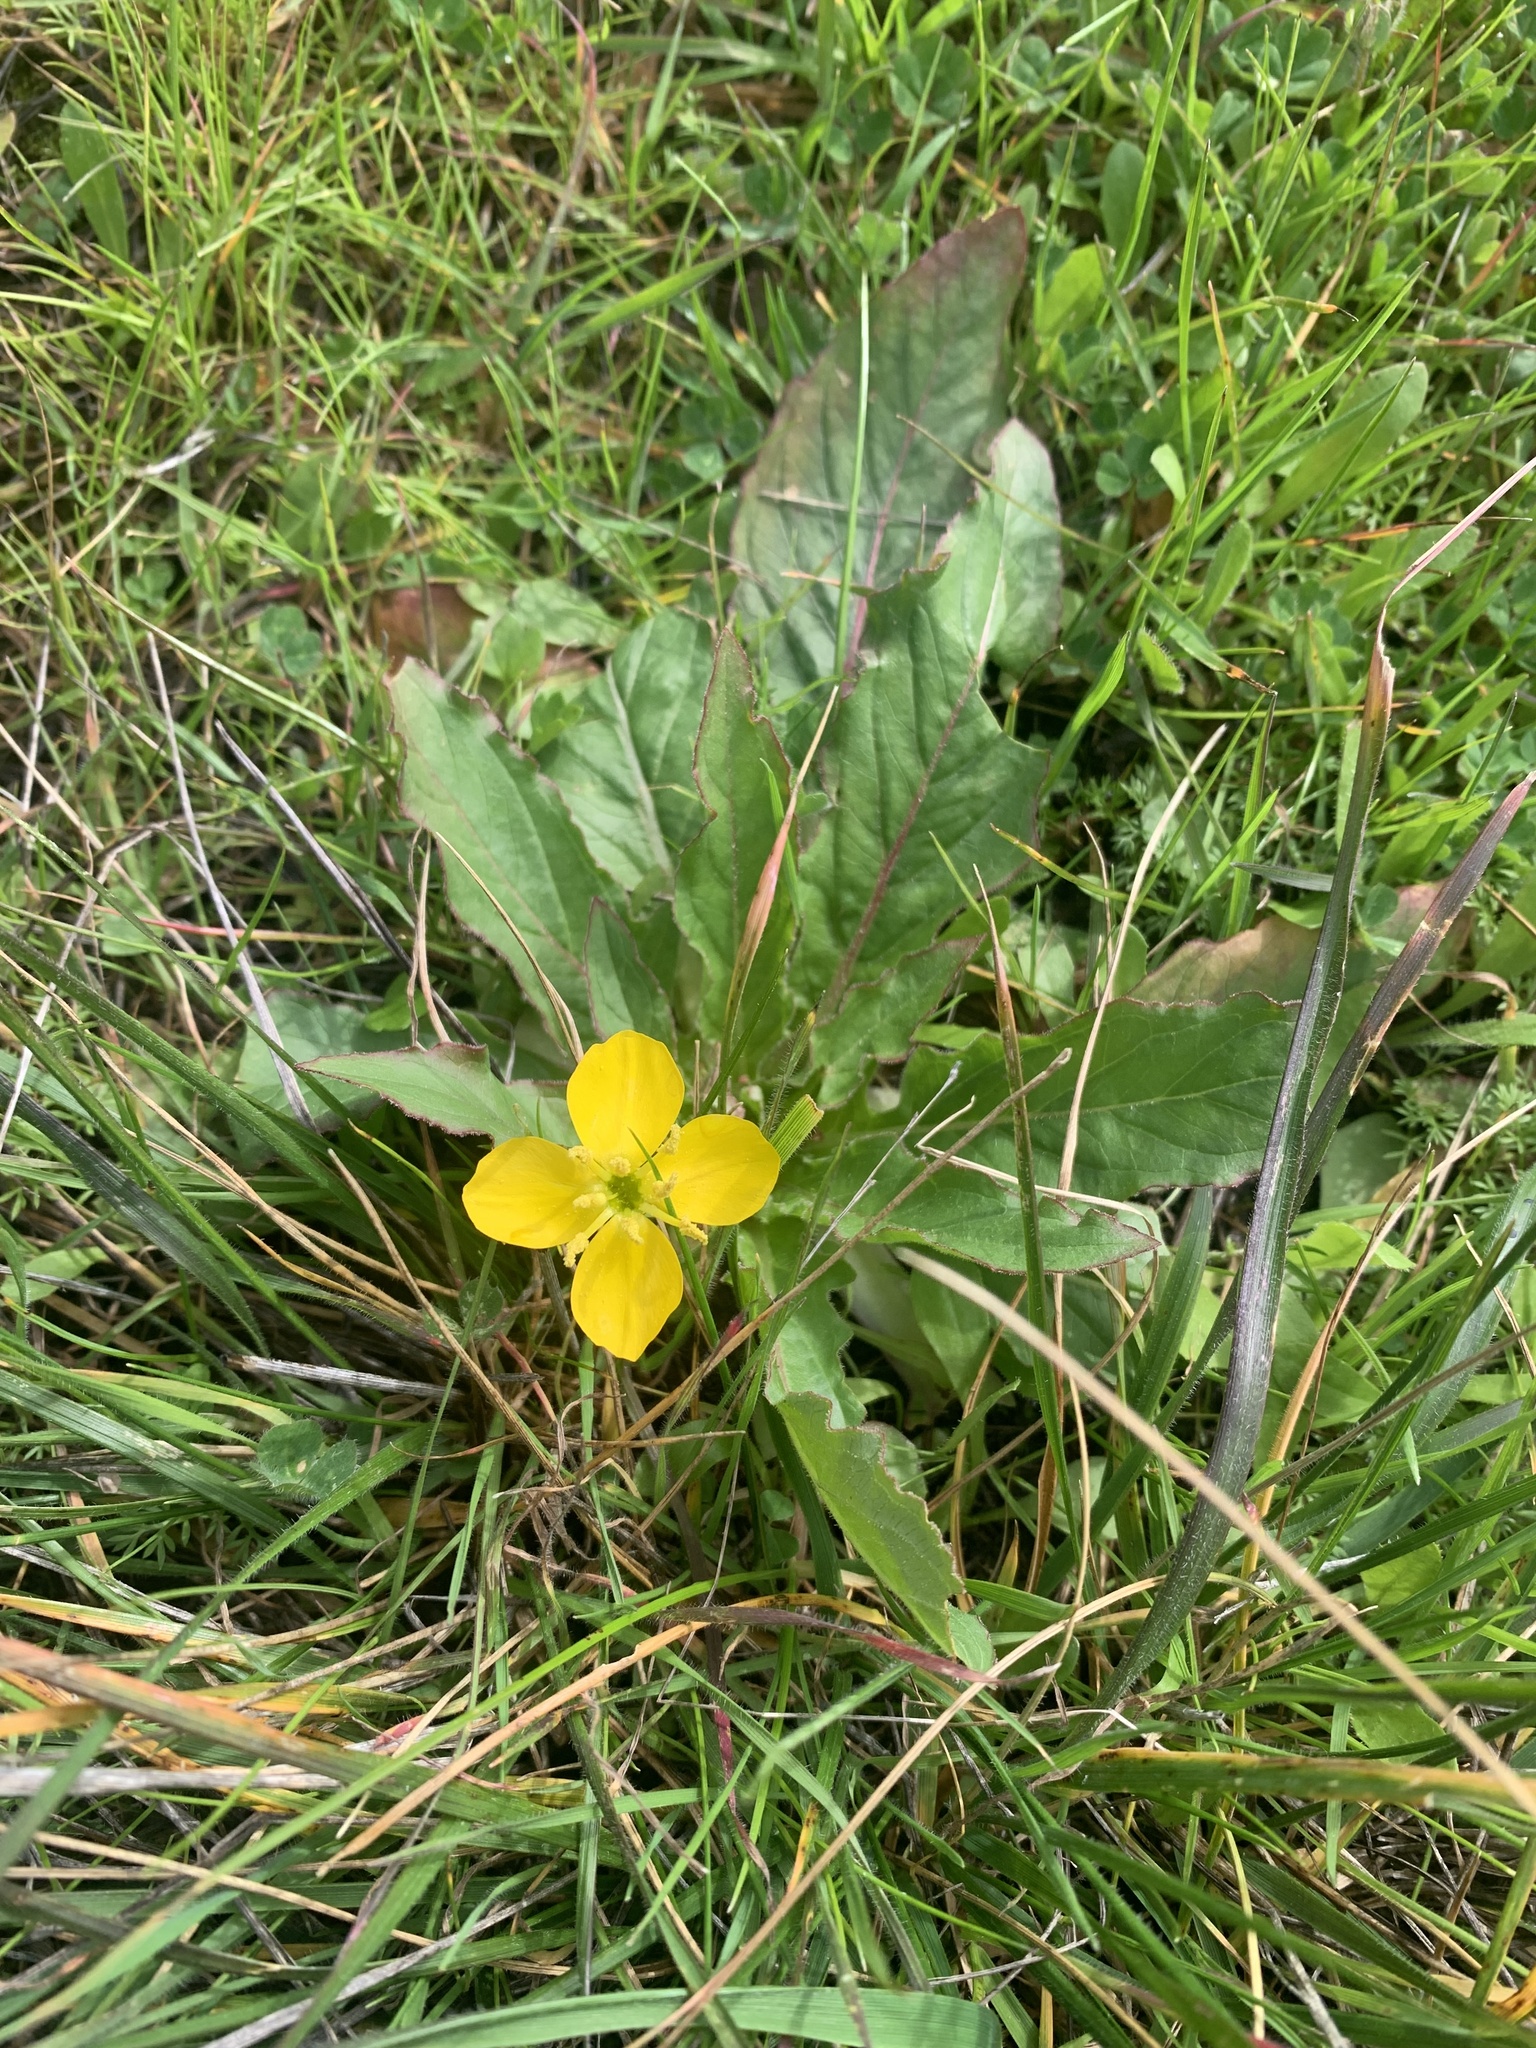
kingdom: Plantae
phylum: Tracheophyta
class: Magnoliopsida
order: Myrtales
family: Onagraceae
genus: Taraxia
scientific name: Taraxia ovata
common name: Goldeneggs
